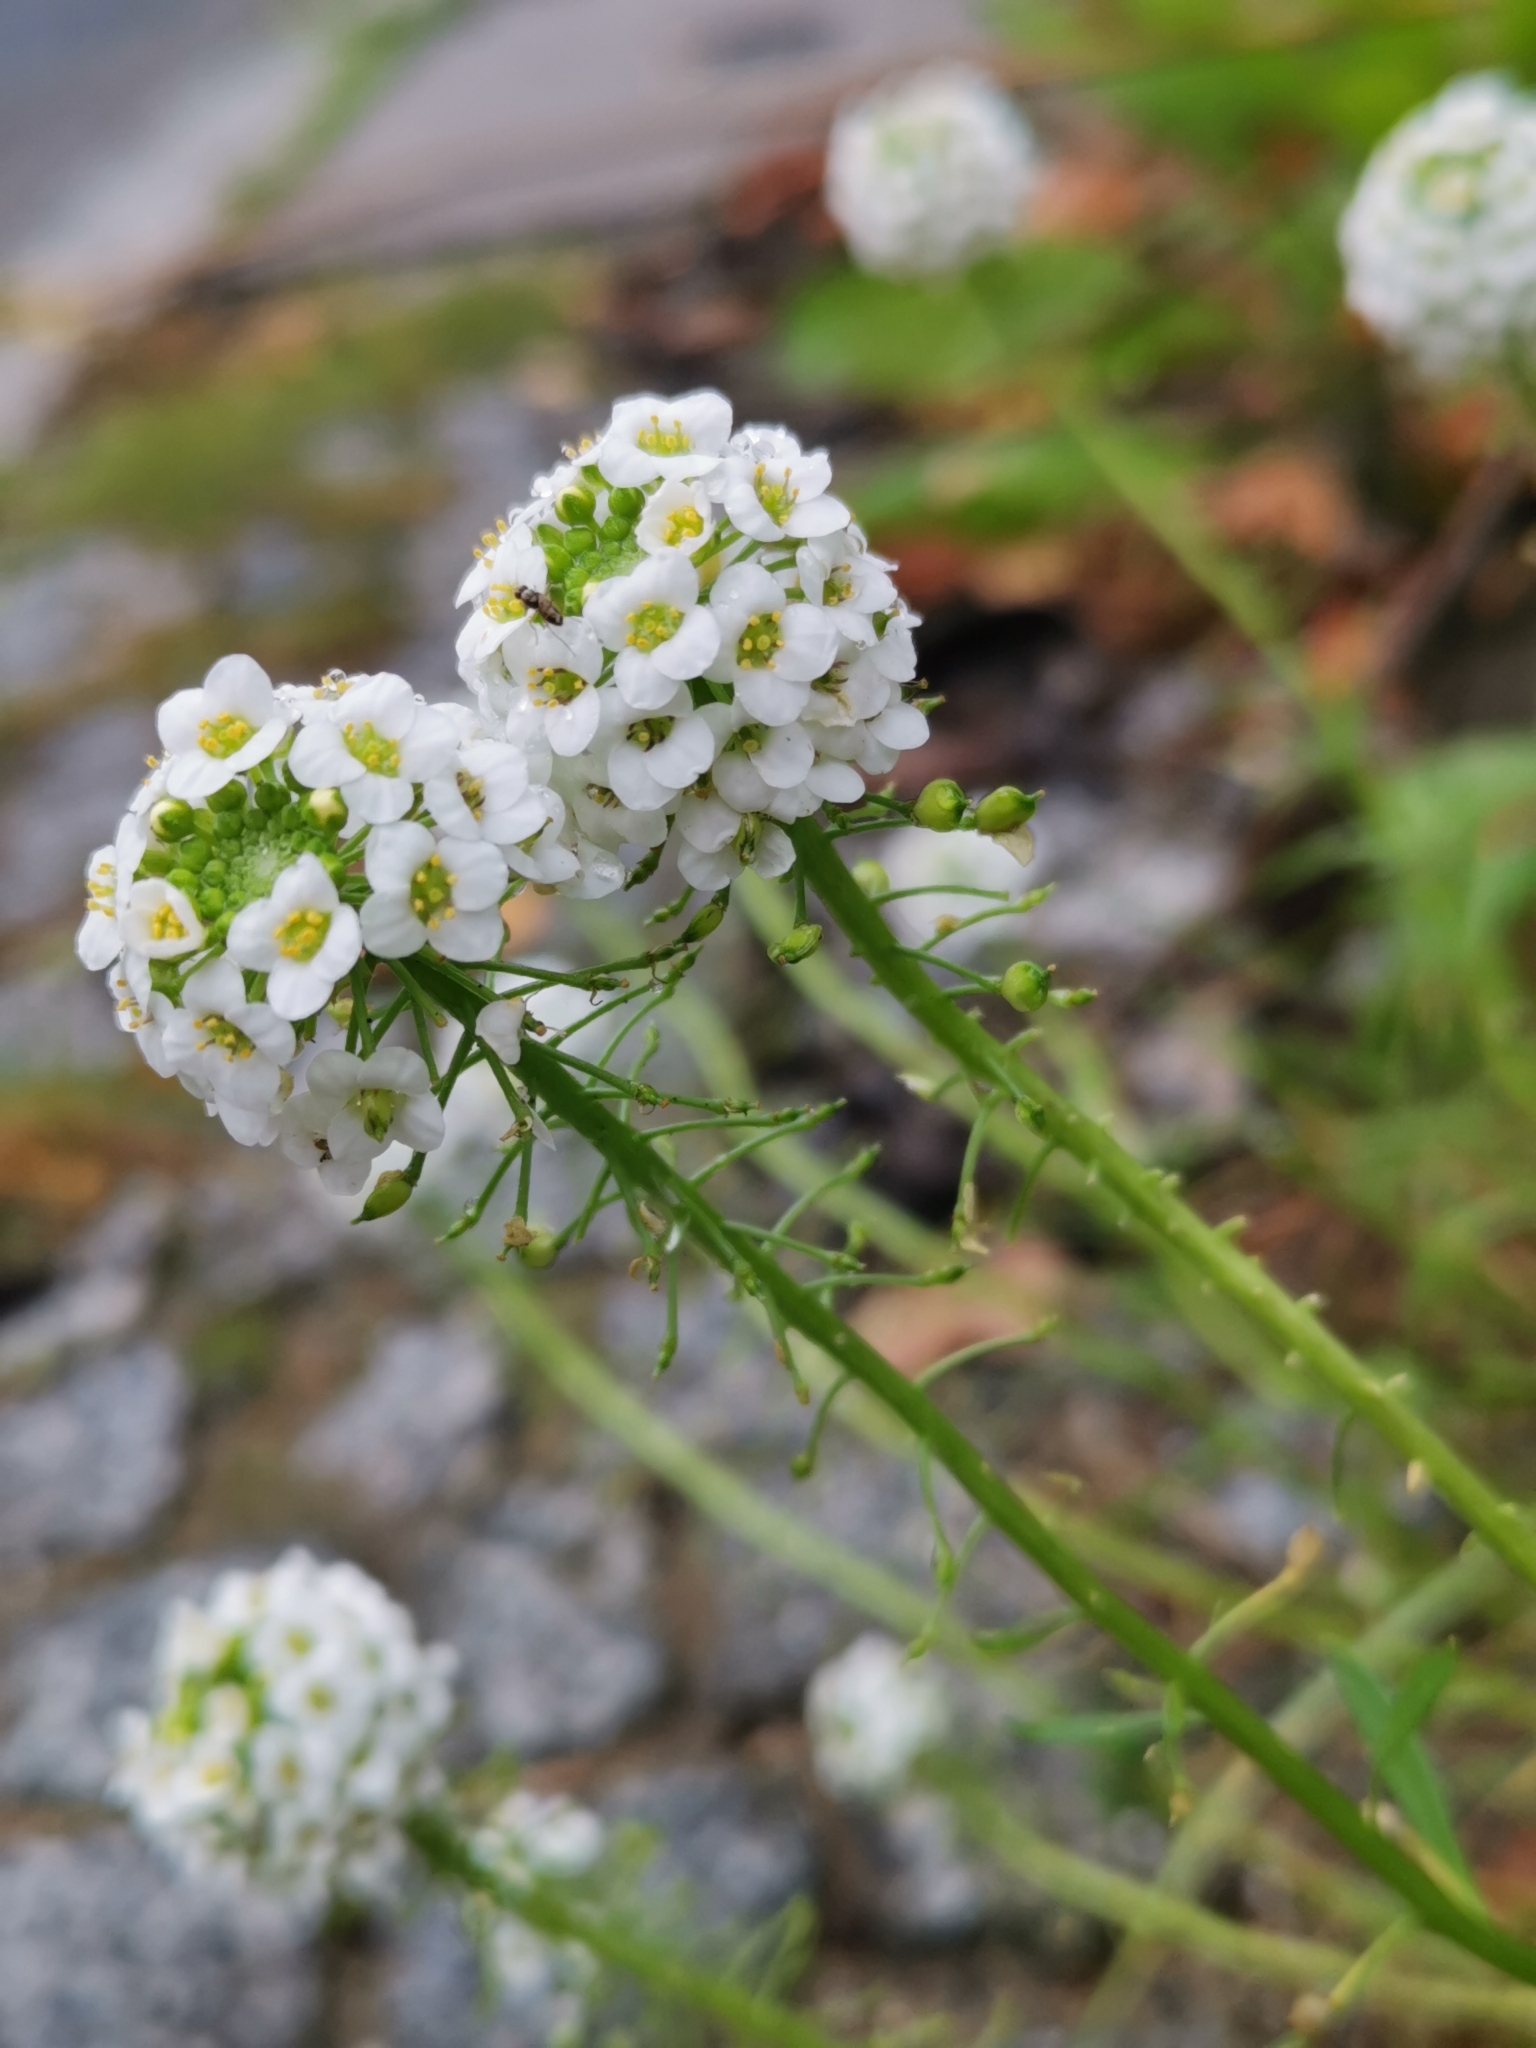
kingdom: Plantae
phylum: Tracheophyta
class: Magnoliopsida
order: Brassicales
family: Brassicaceae
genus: Lobularia
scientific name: Lobularia maritima
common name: Sweet alison
